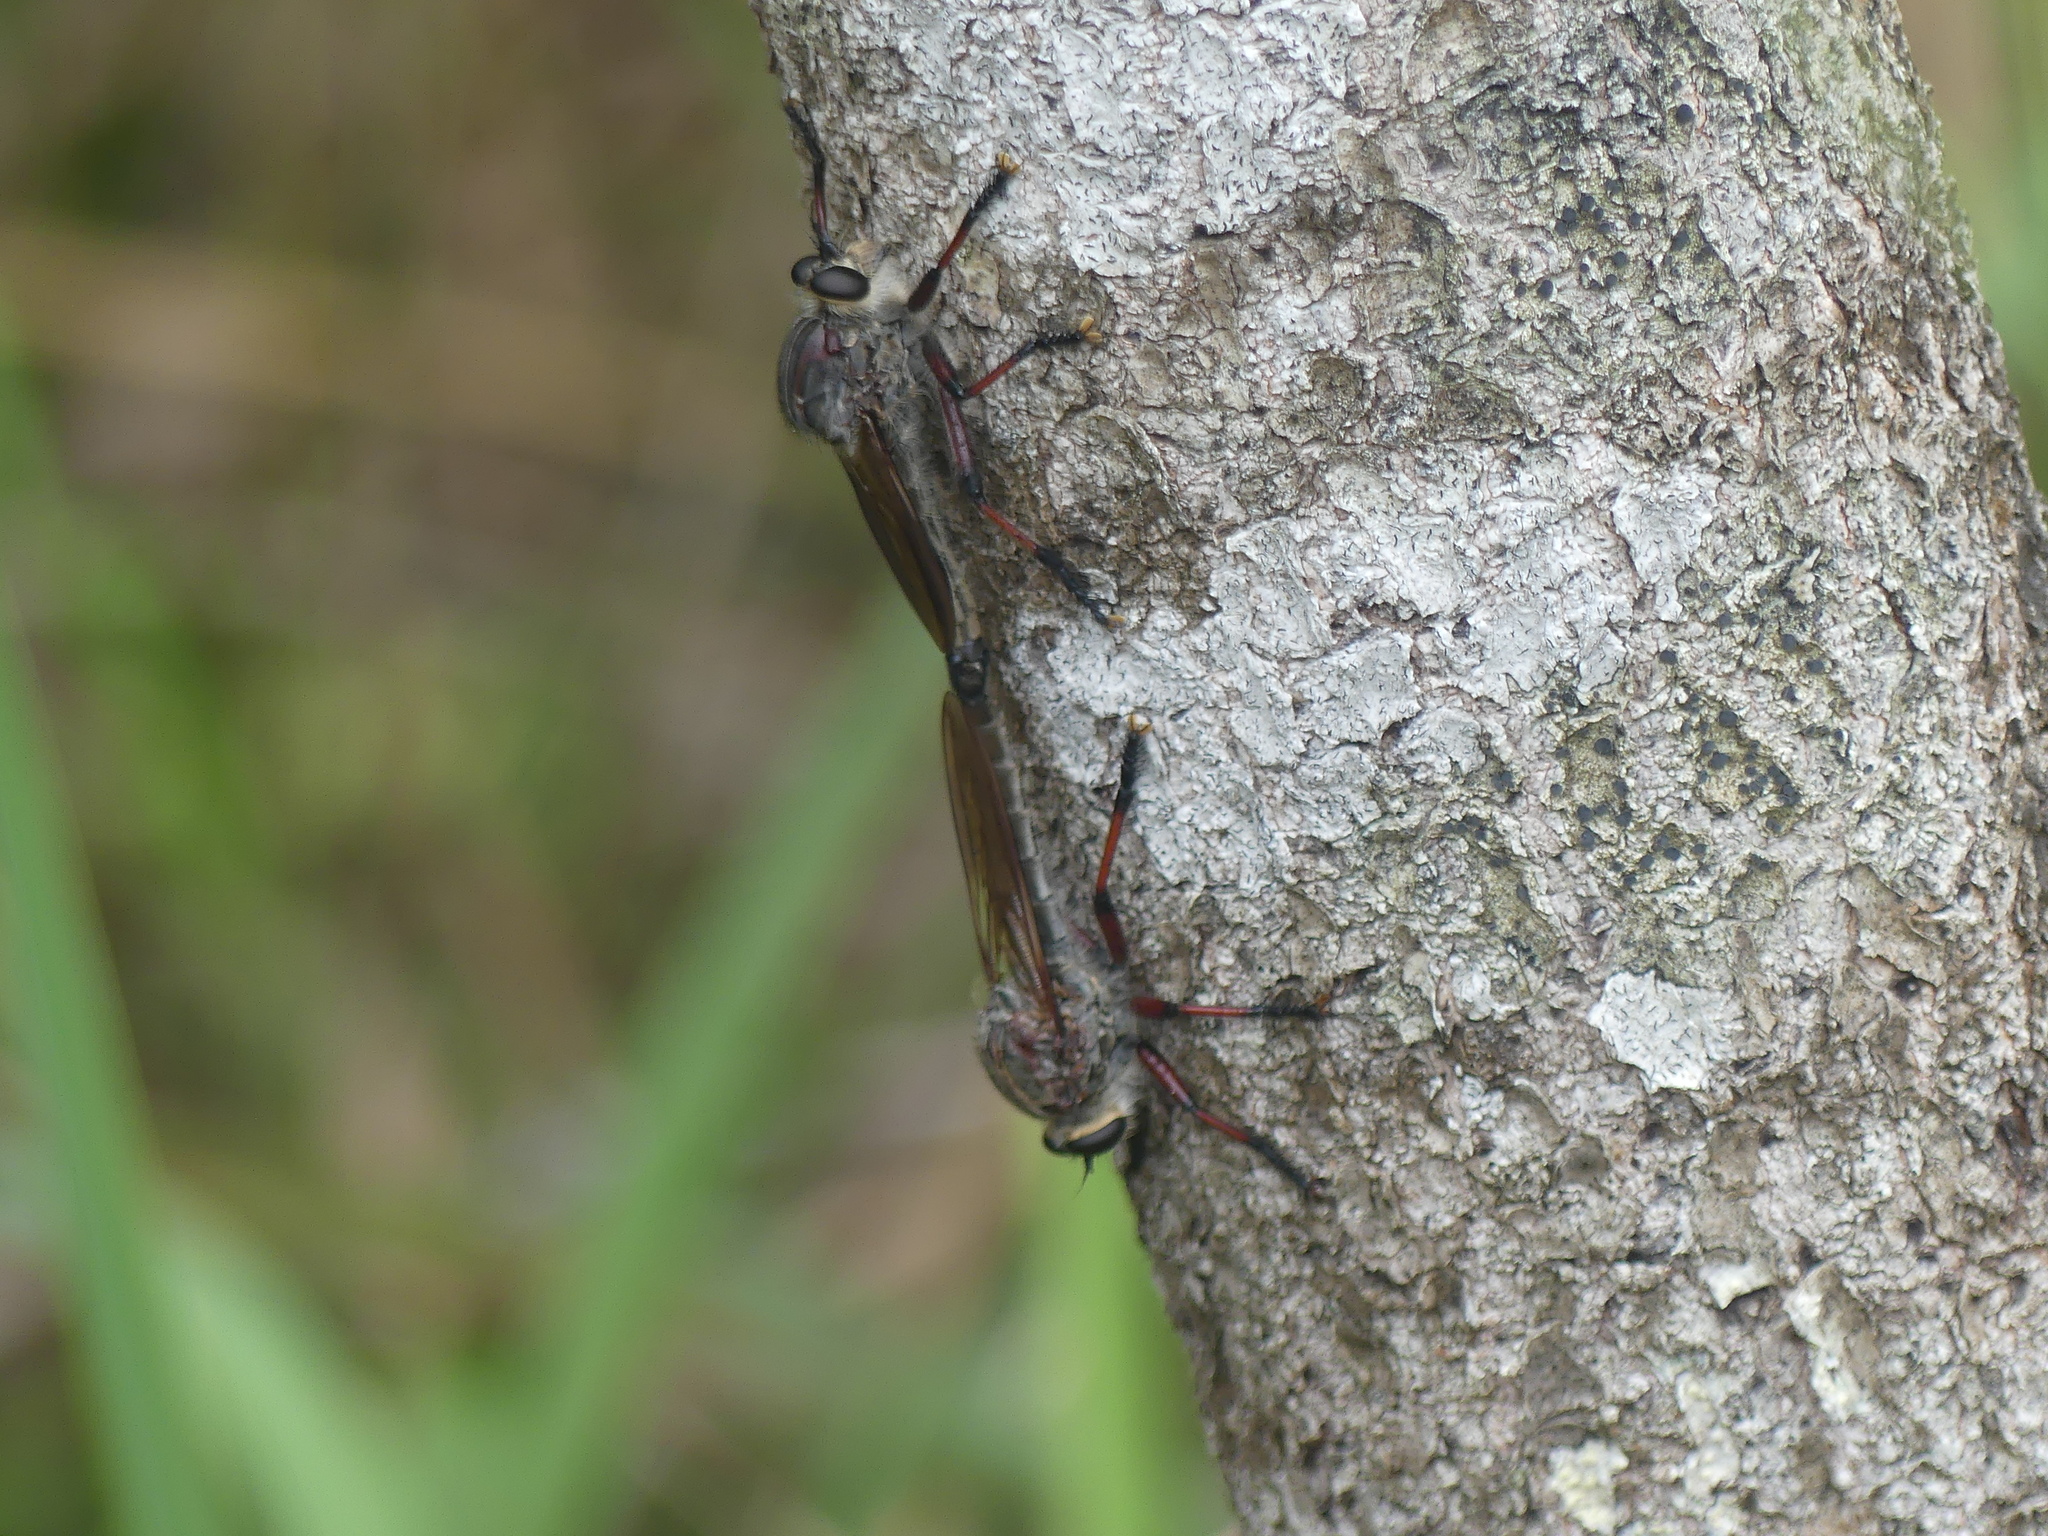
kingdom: Animalia
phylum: Arthropoda
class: Insecta
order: Diptera
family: Asilidae
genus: Neoaratus
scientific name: Neoaratus hercules
